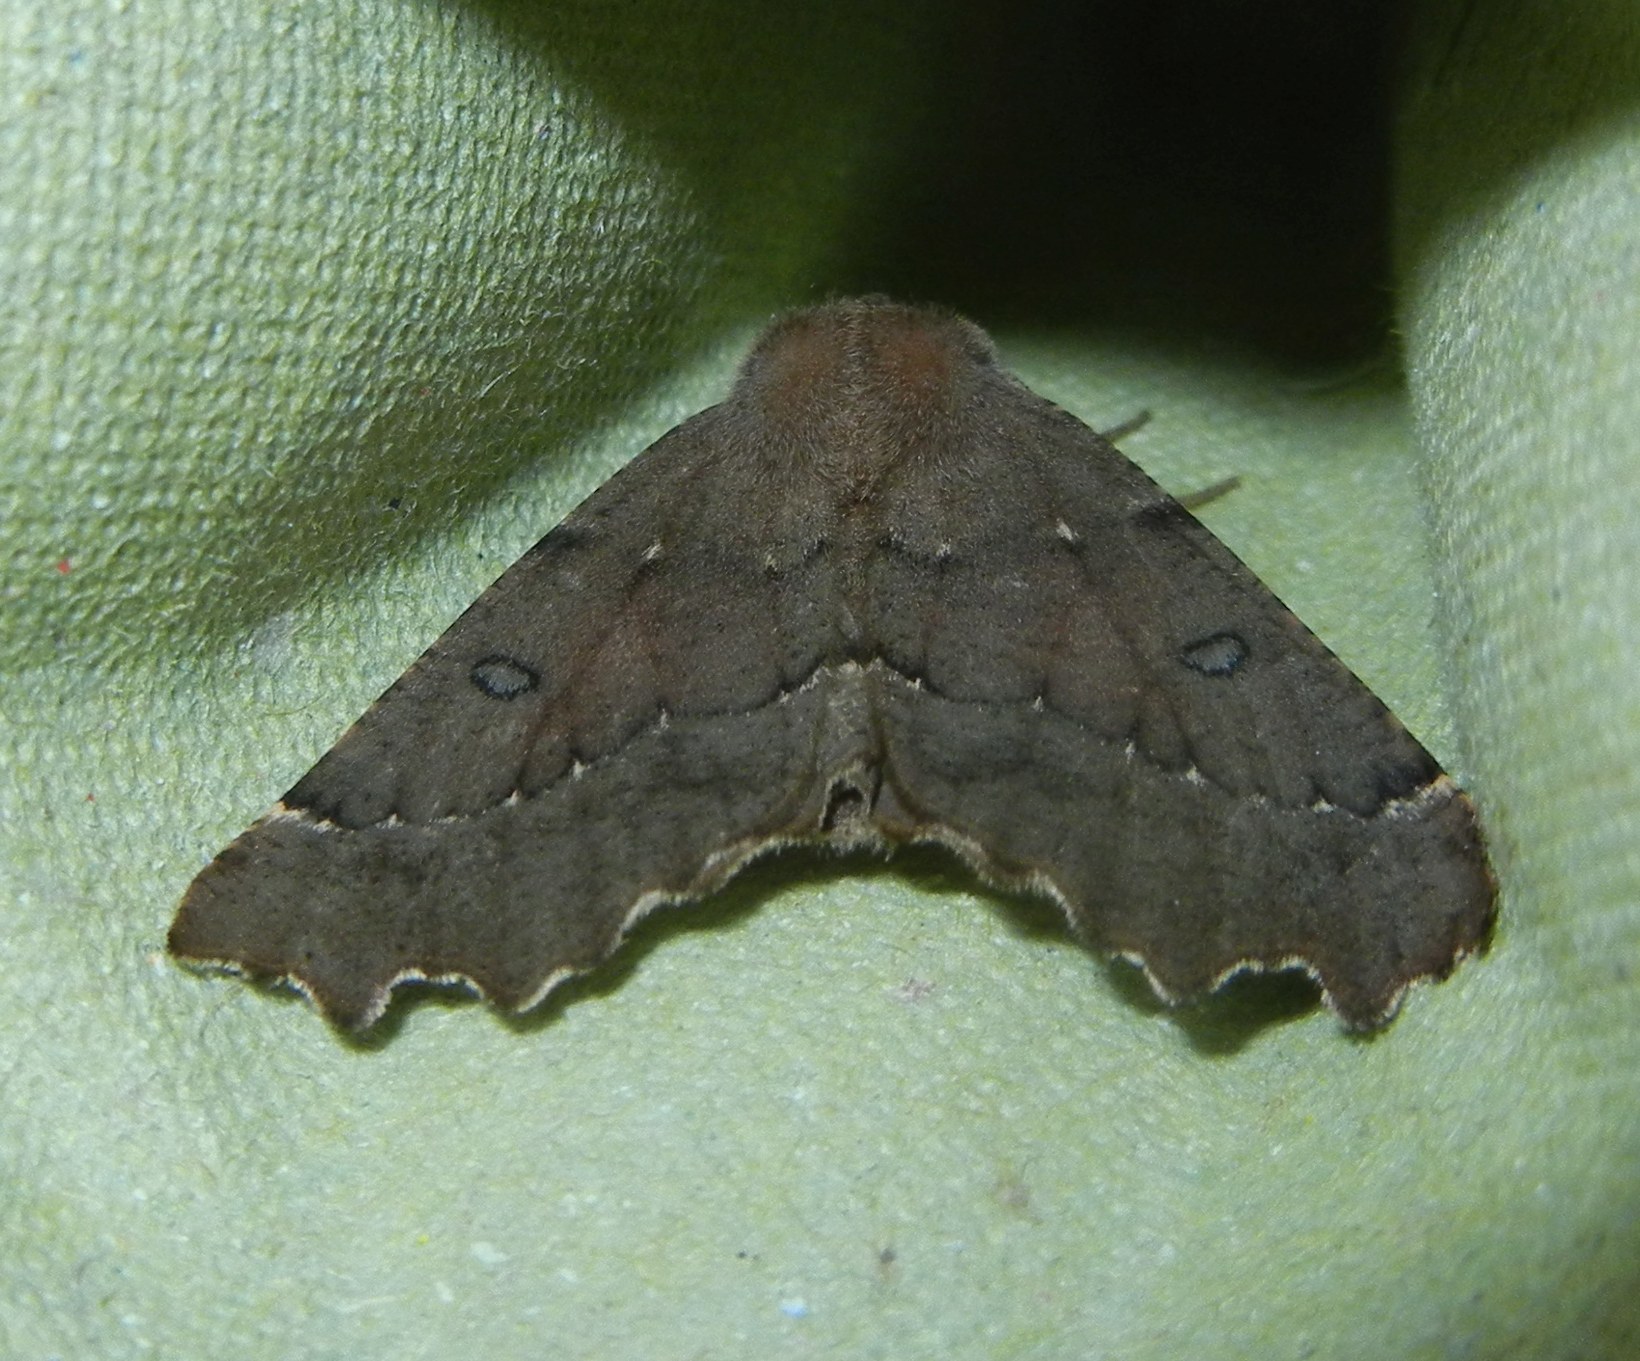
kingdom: Animalia
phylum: Arthropoda
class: Insecta
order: Lepidoptera
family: Geometridae
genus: Odontopera
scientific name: Odontopera bidentata
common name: Scalloped hazel
